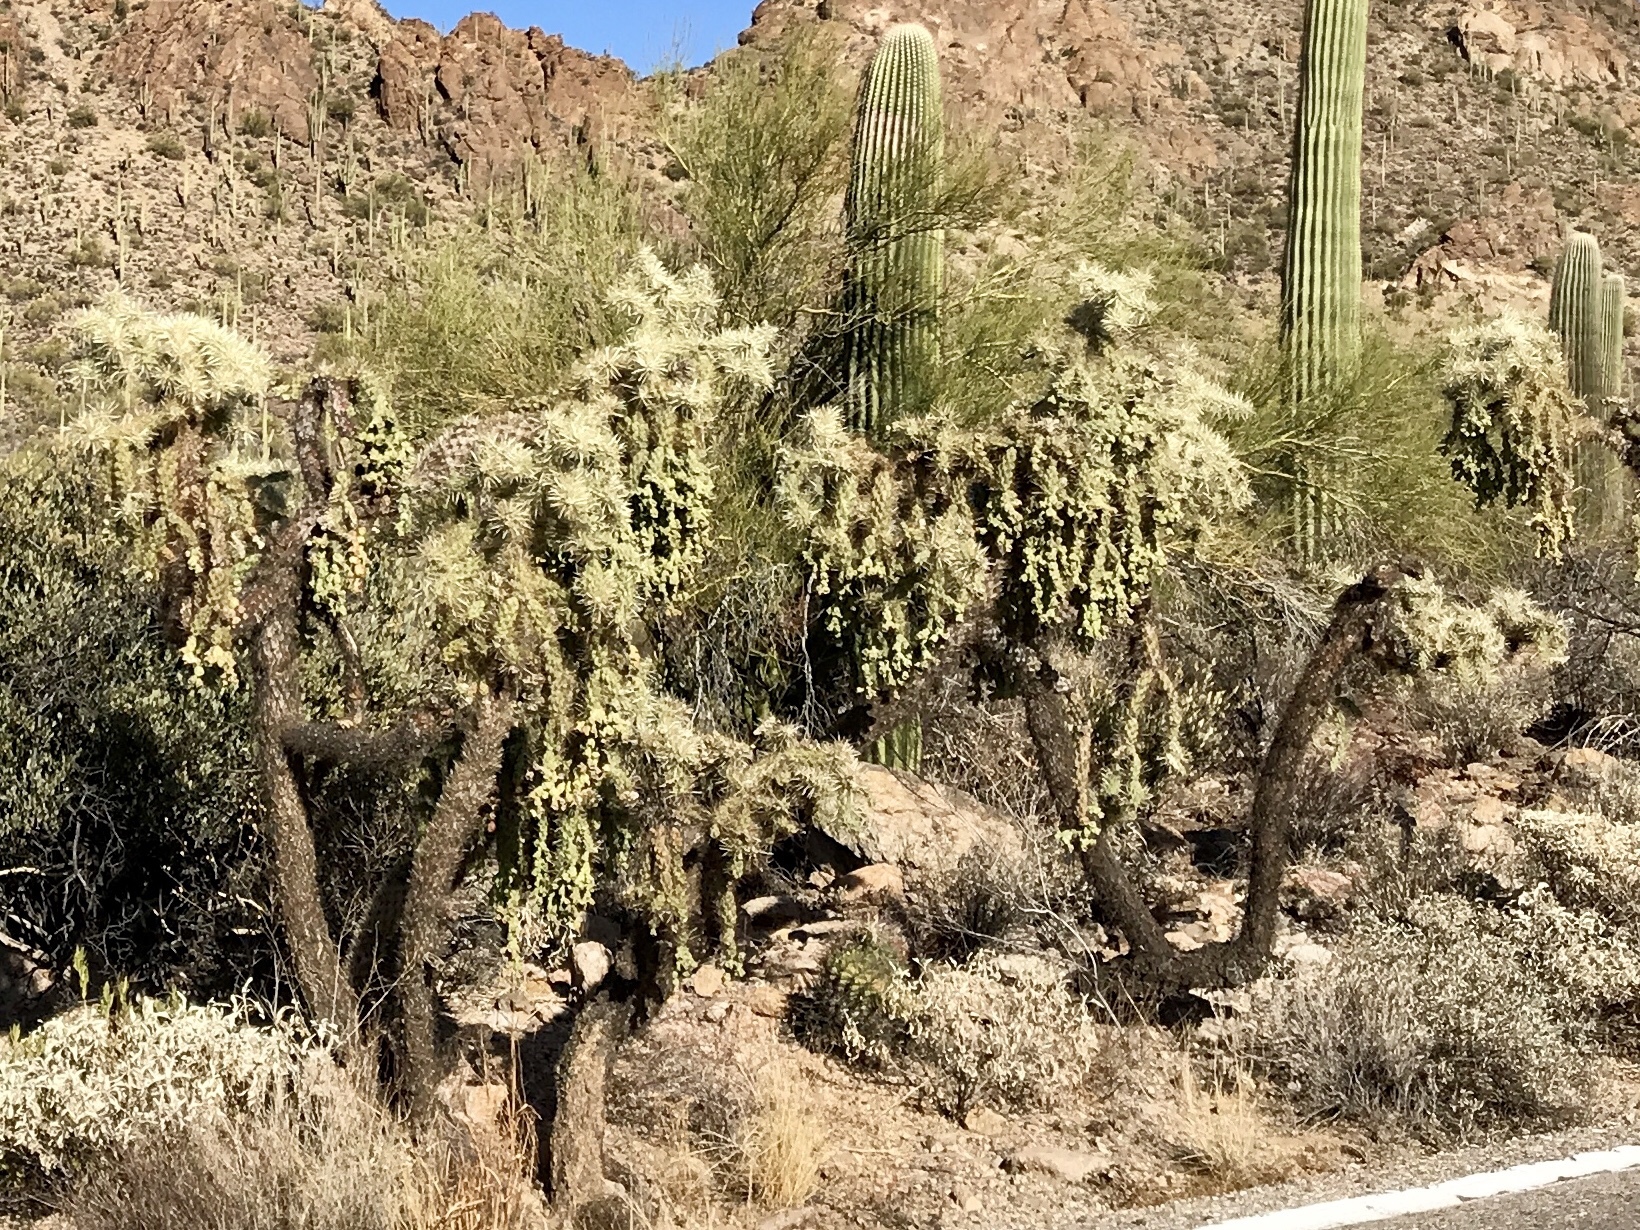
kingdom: Plantae
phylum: Tracheophyta
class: Magnoliopsida
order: Caryophyllales
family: Cactaceae
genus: Cylindropuntia
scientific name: Cylindropuntia fulgida
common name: Jumping cholla
